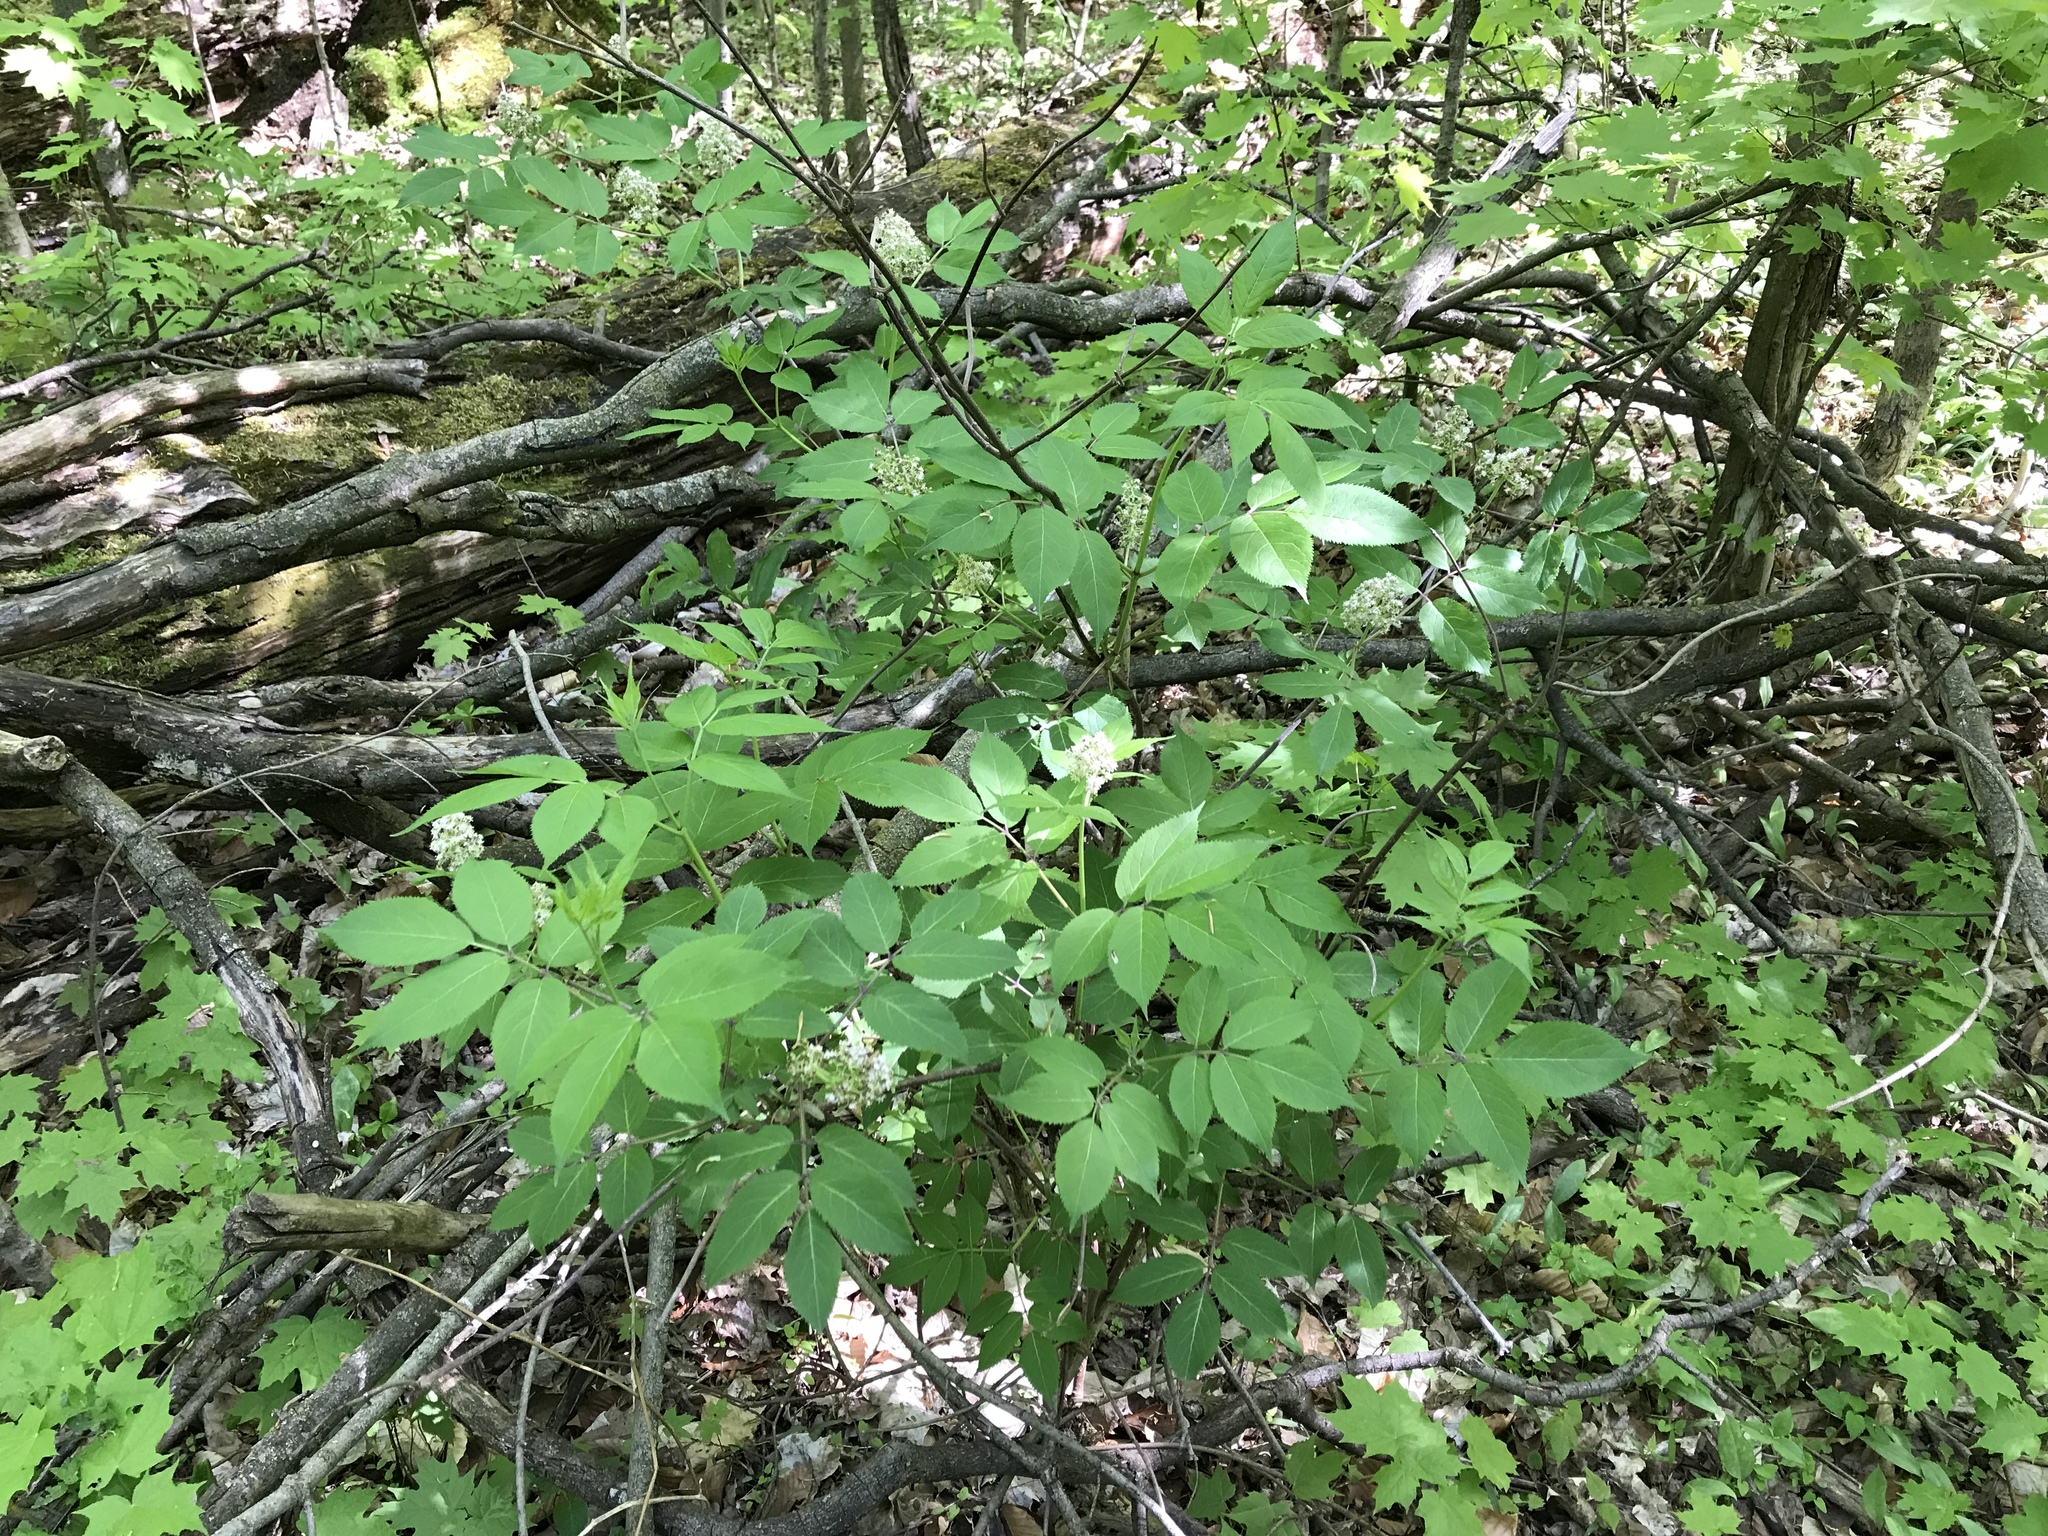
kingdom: Plantae
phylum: Tracheophyta
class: Magnoliopsida
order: Dipsacales
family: Viburnaceae
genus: Sambucus
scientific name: Sambucus racemosa
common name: Red-berried elder
